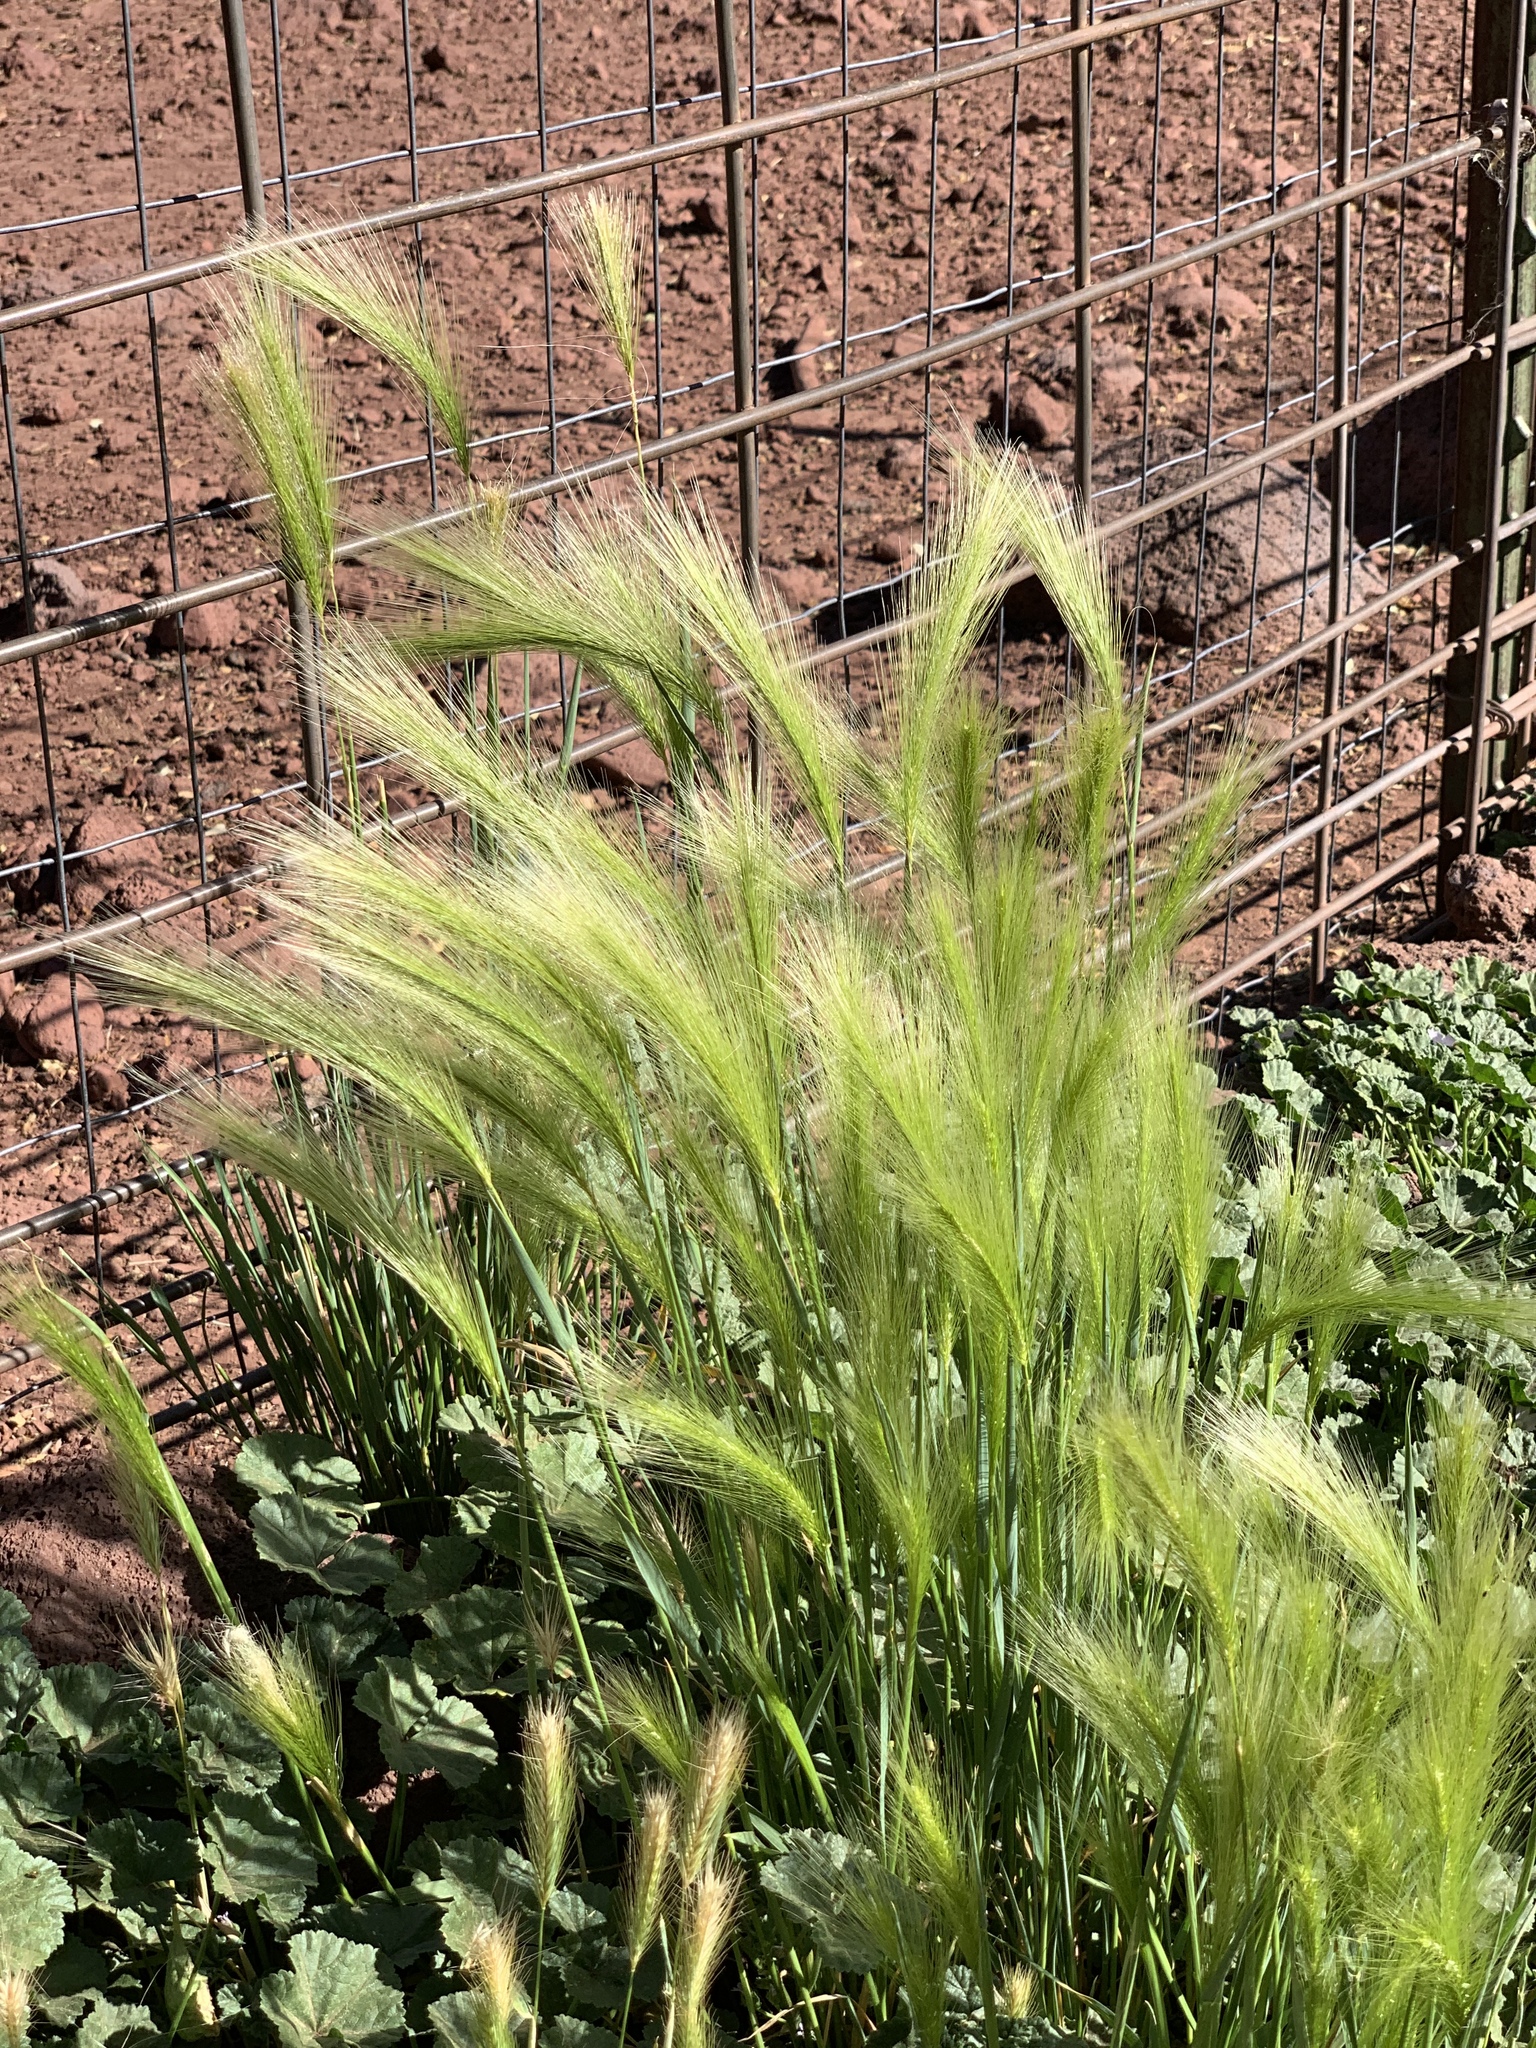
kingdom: Plantae
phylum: Tracheophyta
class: Liliopsida
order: Poales
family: Poaceae
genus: Hordeum
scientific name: Hordeum jubatum
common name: Foxtail barley
